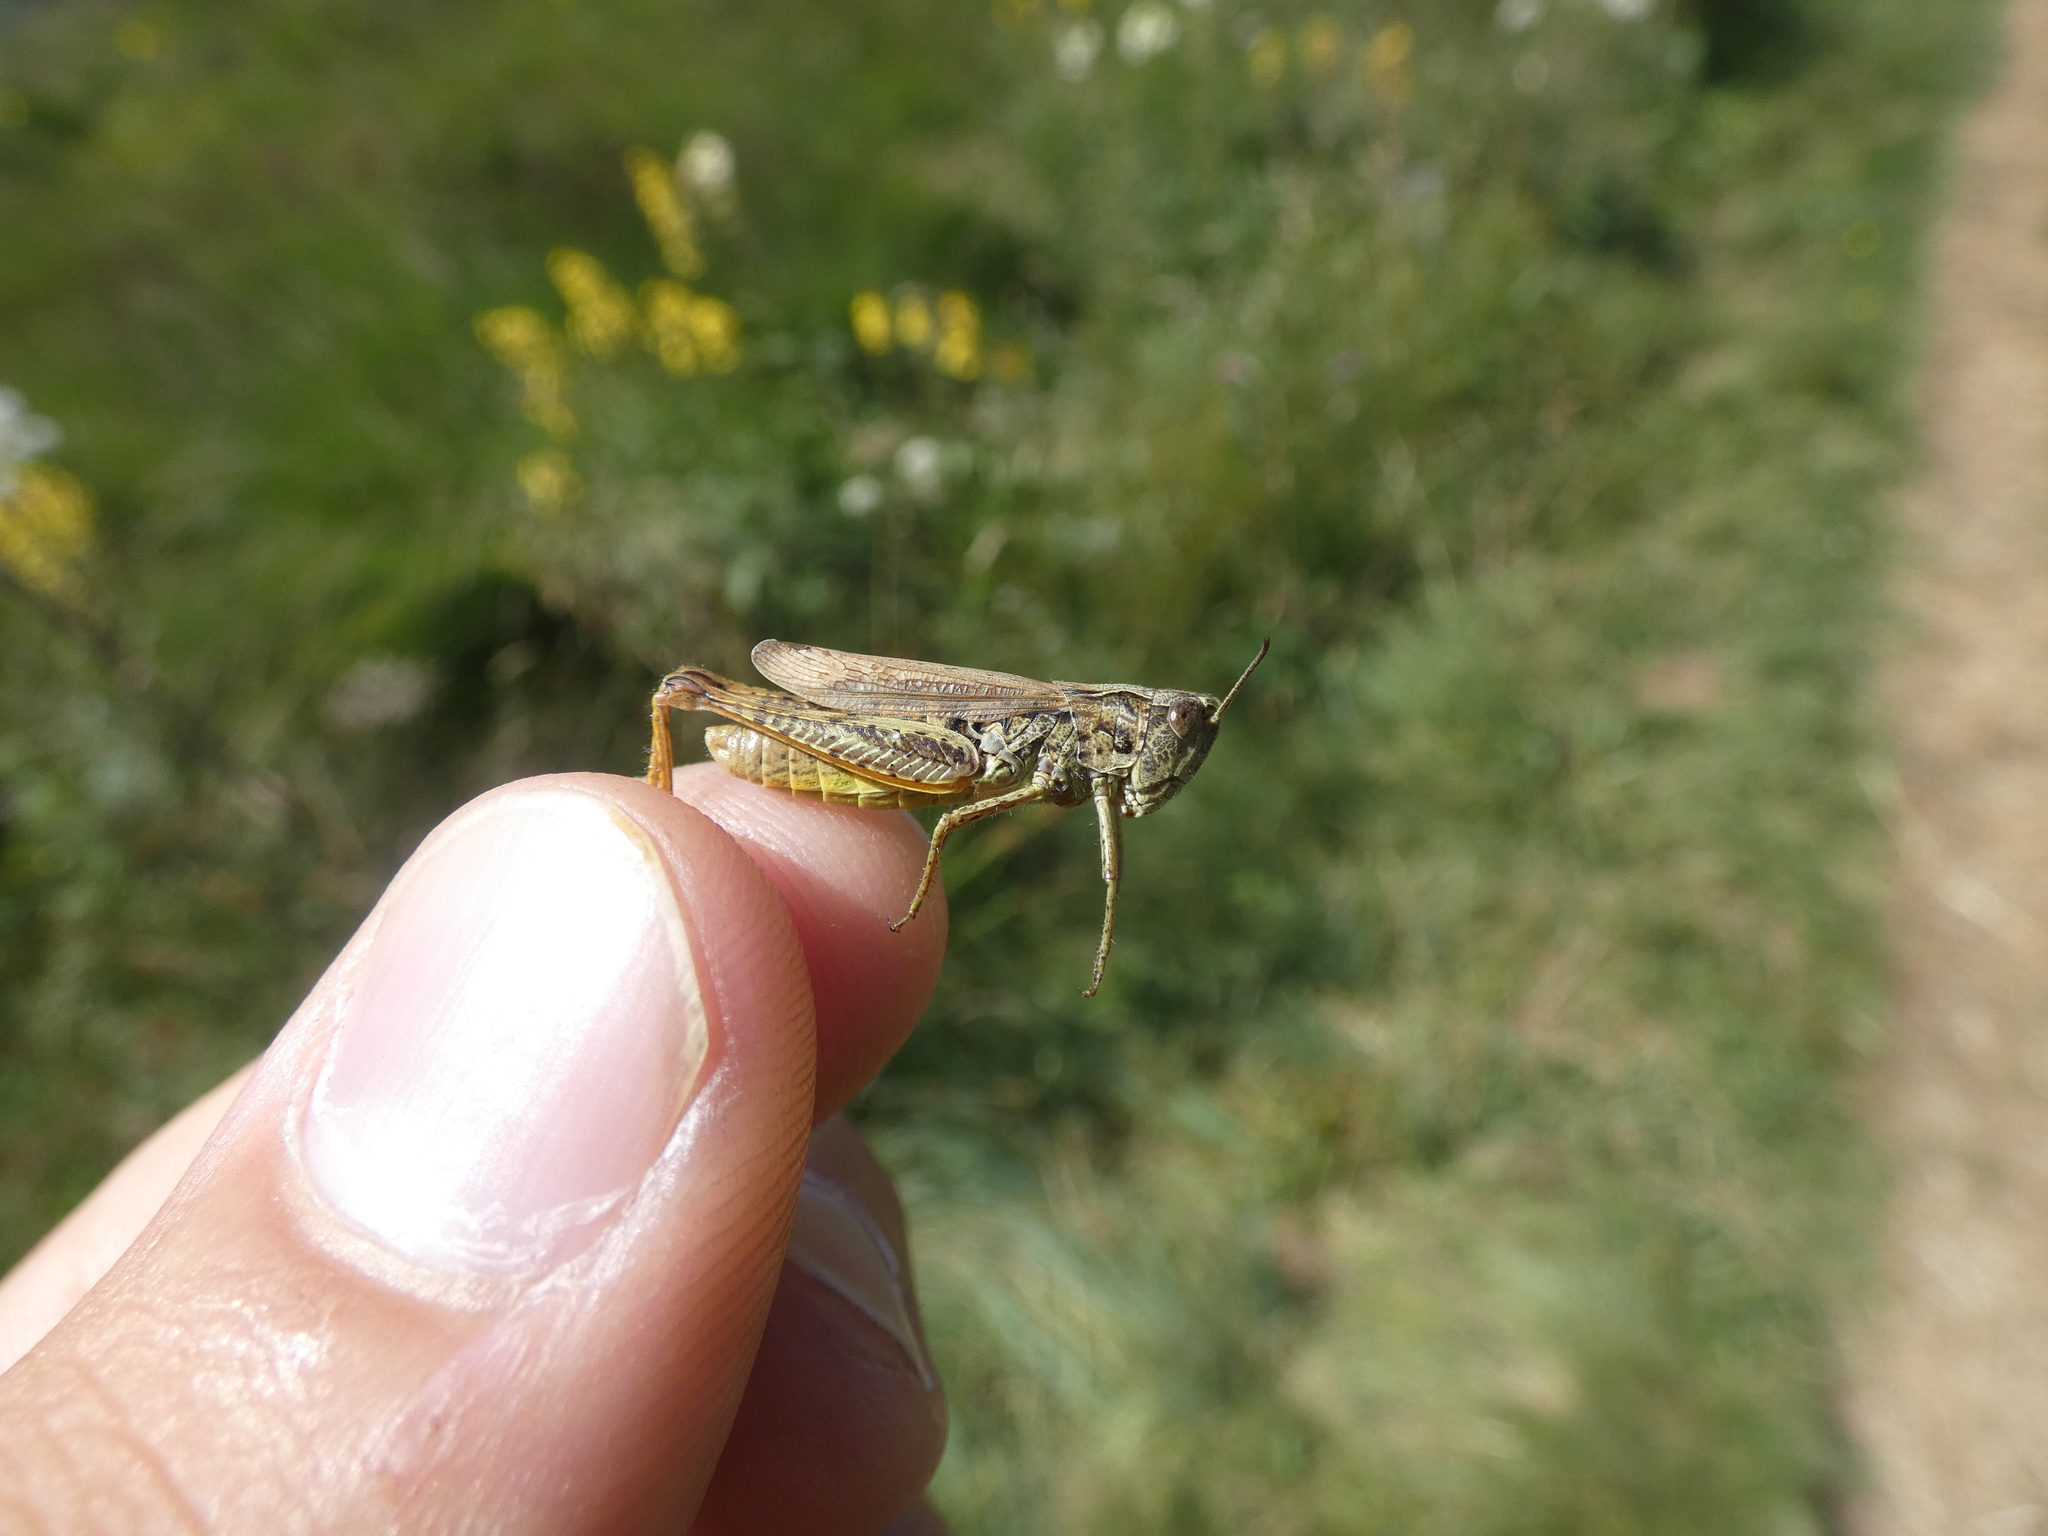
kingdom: Animalia
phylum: Arthropoda
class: Insecta
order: Orthoptera
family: Acrididae
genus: Chorthippus
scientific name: Chorthippus apricarius
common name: Upland field grasshopper
